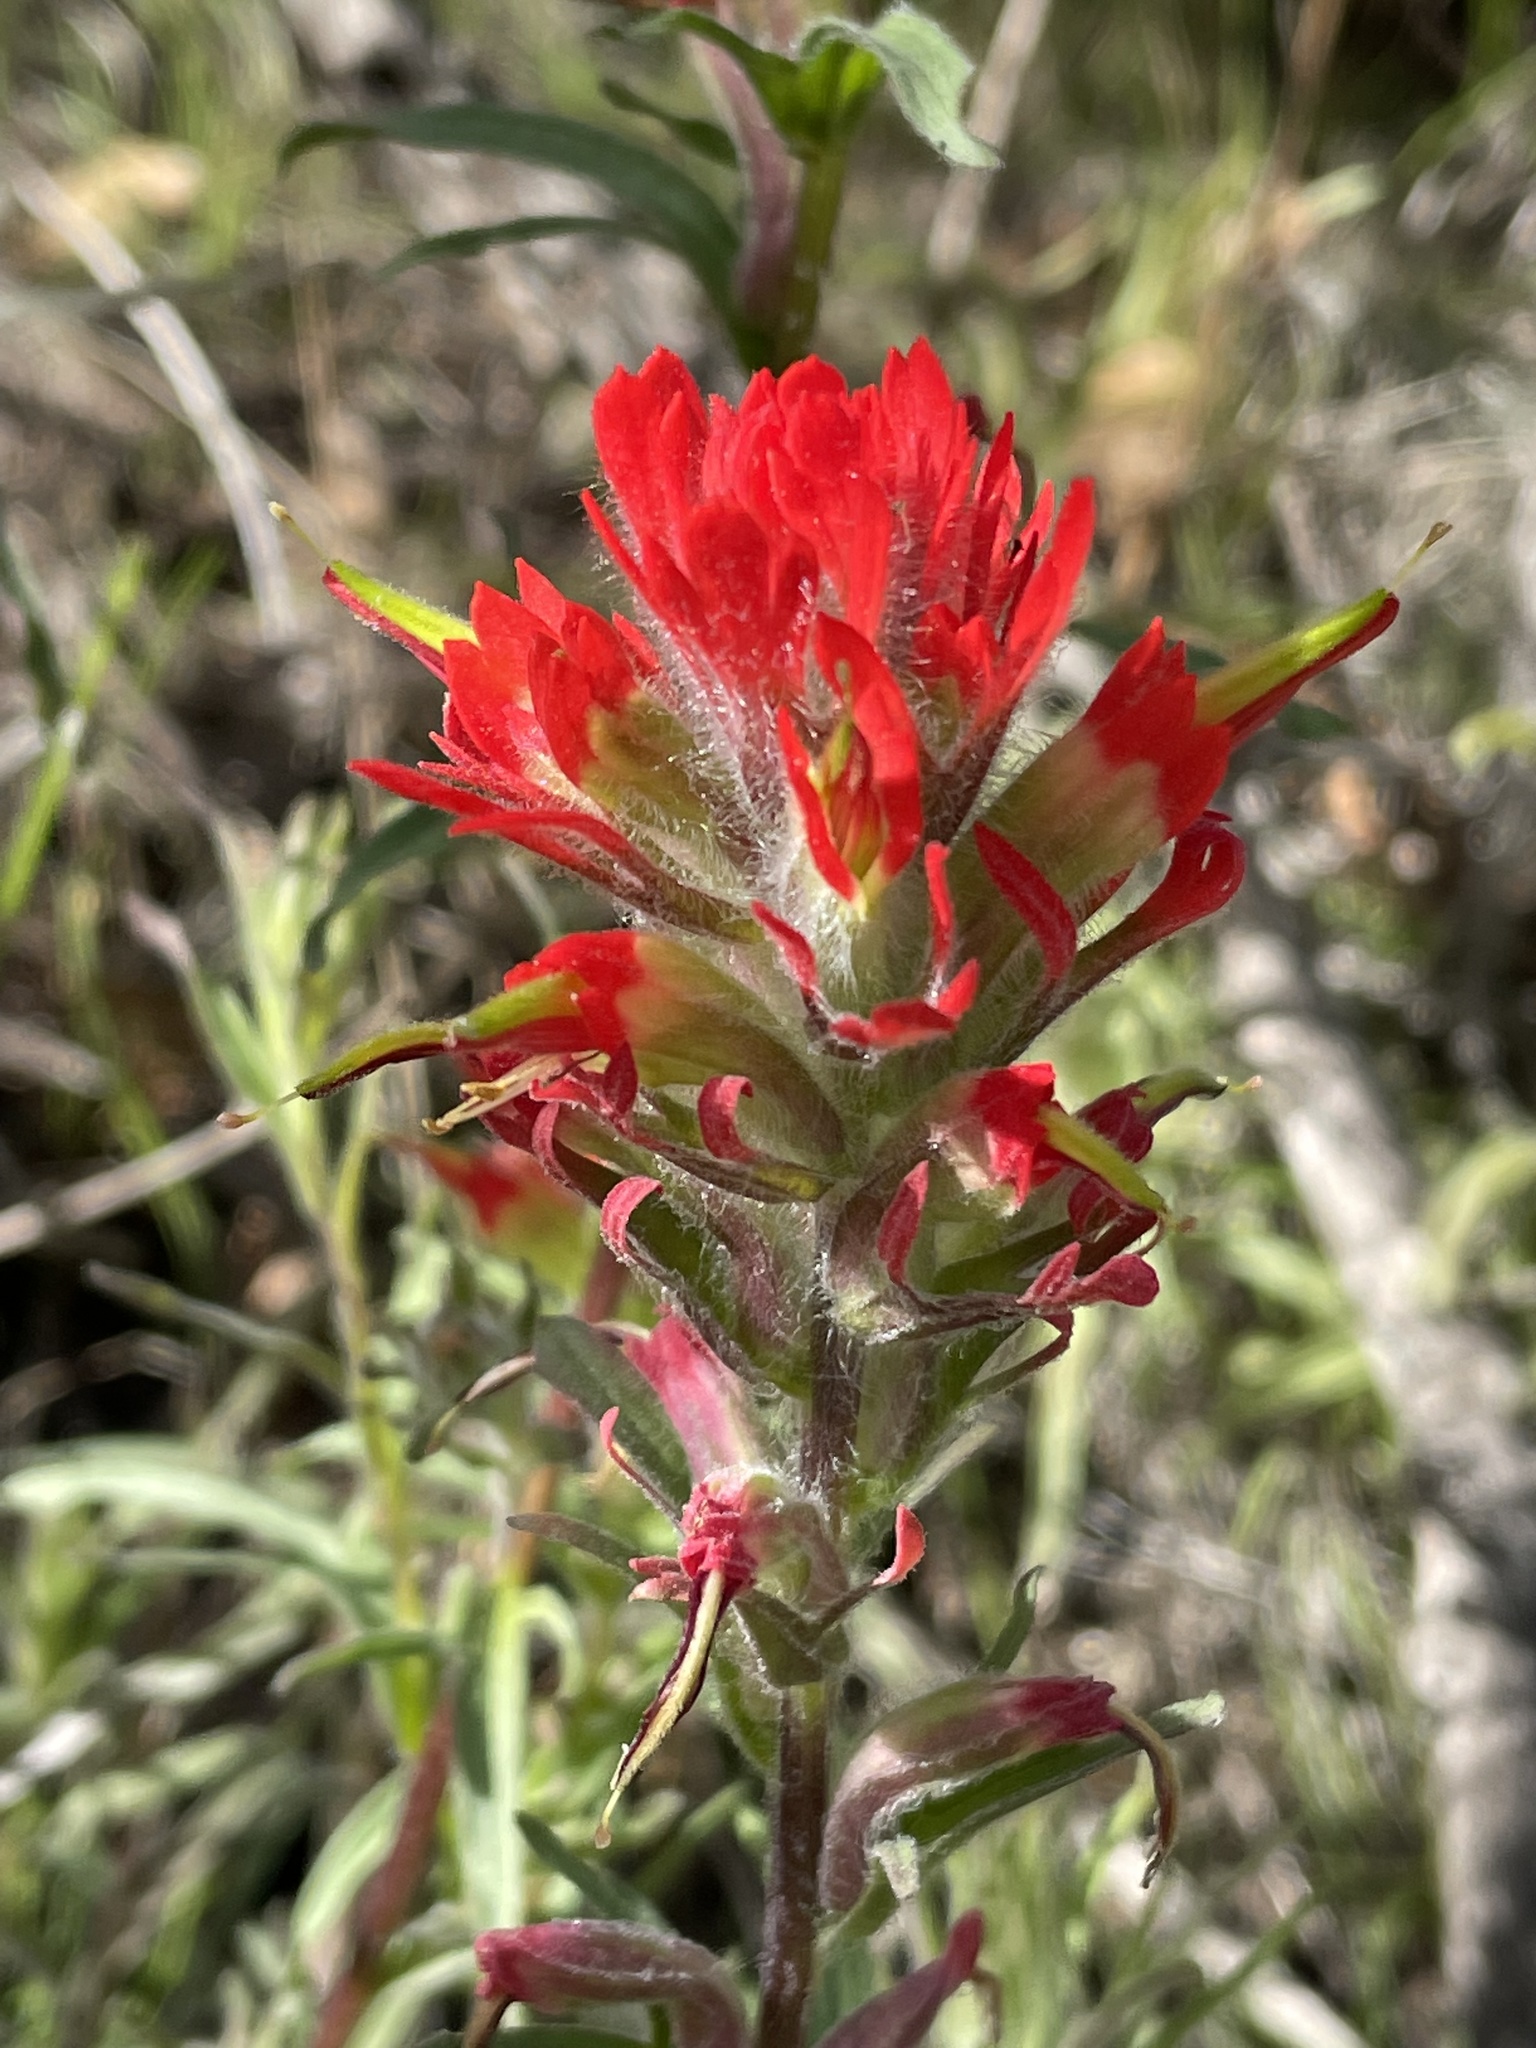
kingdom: Plantae
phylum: Tracheophyta
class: Magnoliopsida
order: Lamiales
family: Orobanchaceae
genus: Castilleja
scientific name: Castilleja affinis
